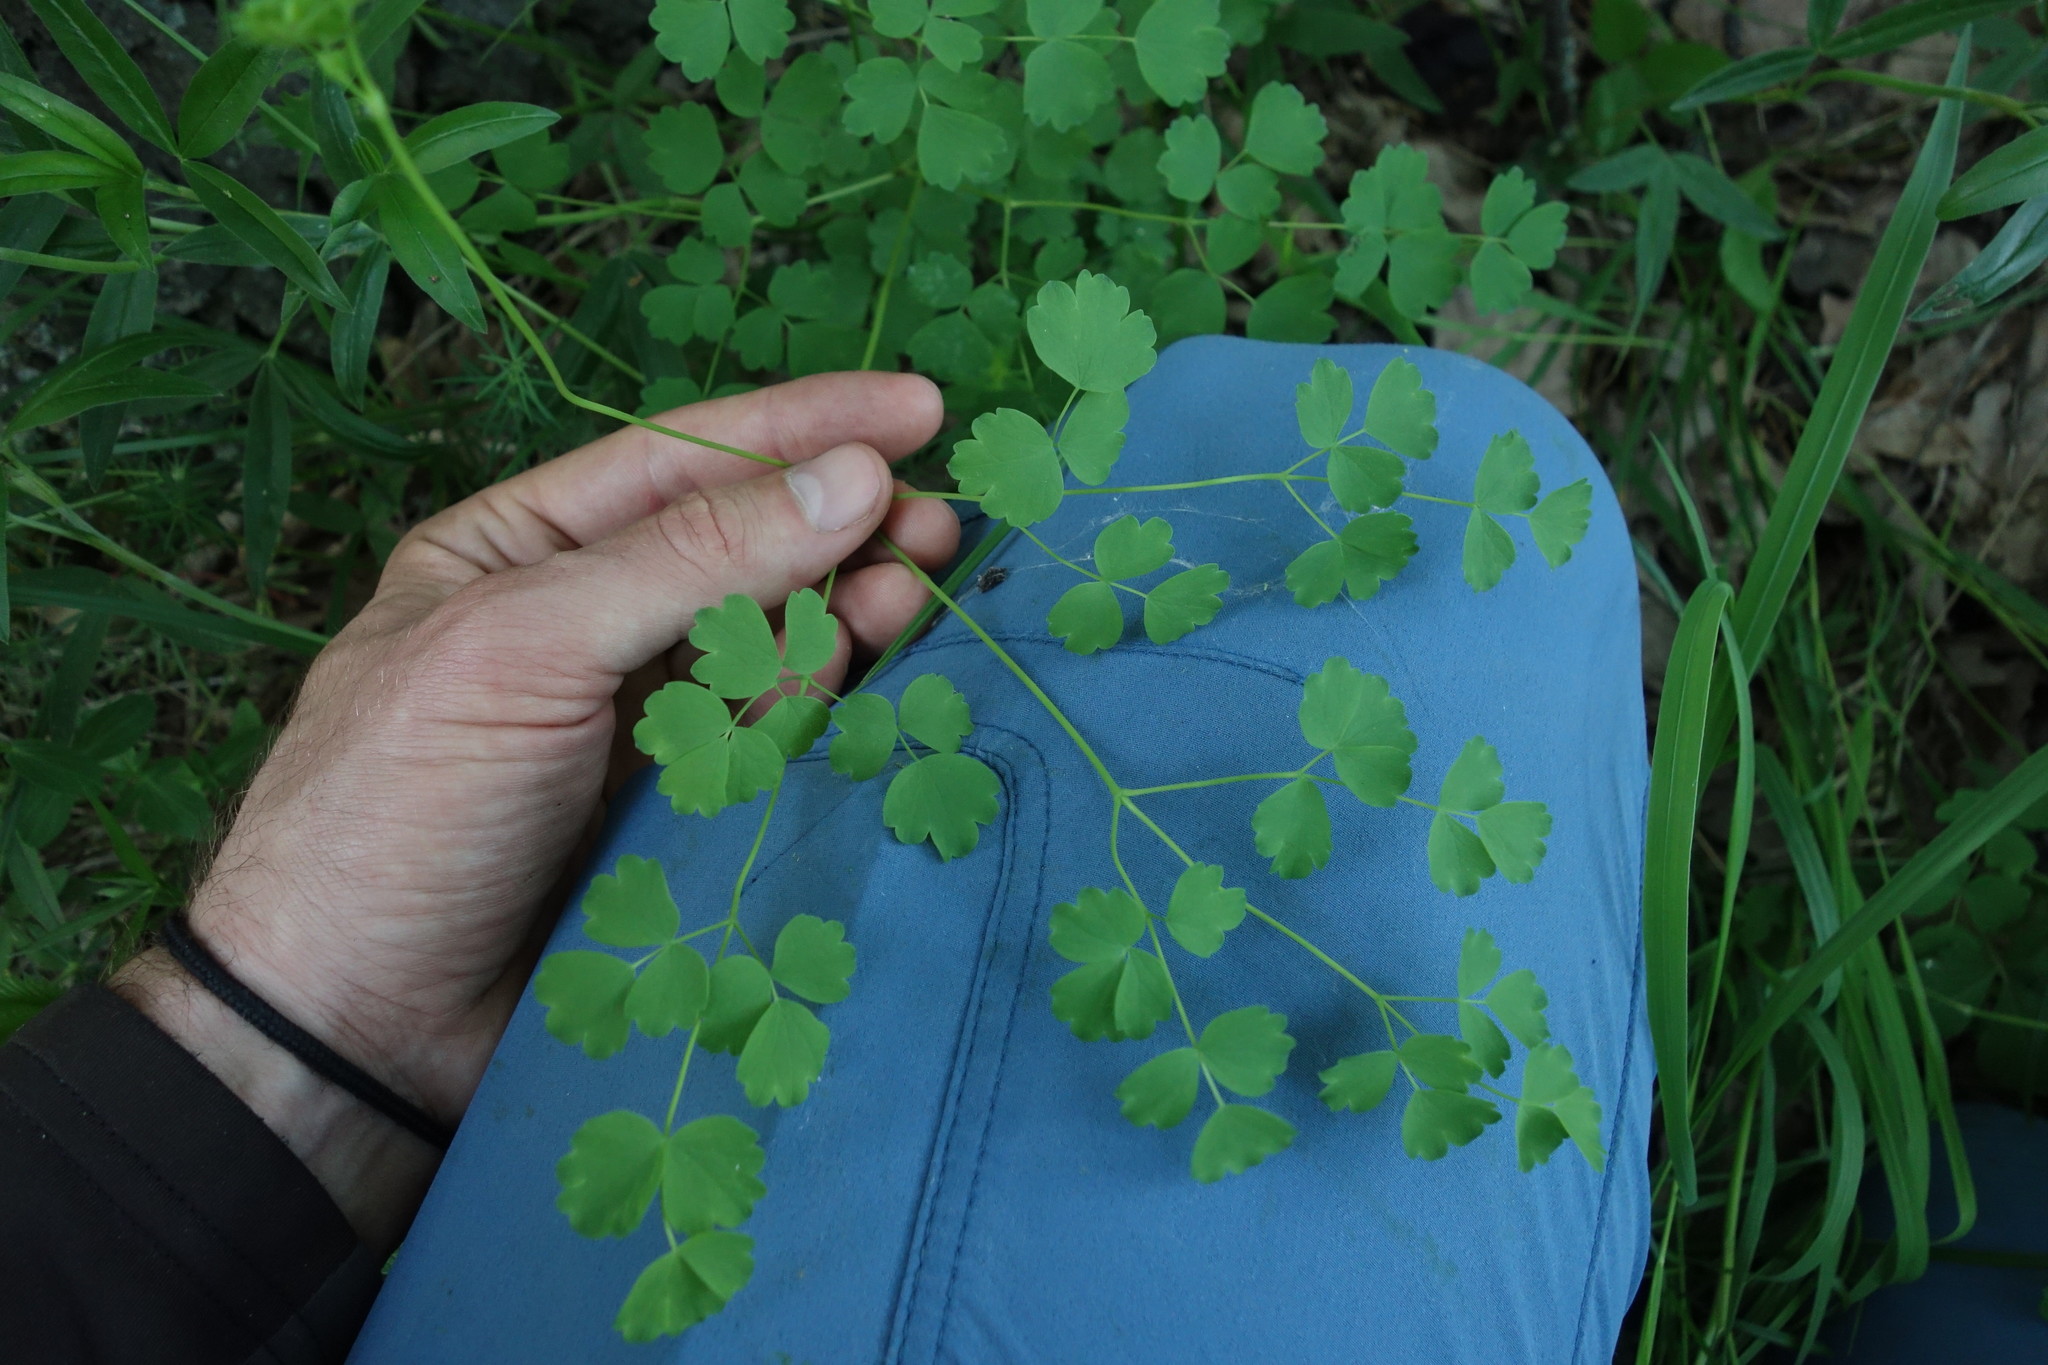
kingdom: Plantae
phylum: Tracheophyta
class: Magnoliopsida
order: Ranunculales
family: Ranunculaceae
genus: Thalictrum
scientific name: Thalictrum minus
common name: Lesser meadow-rue
